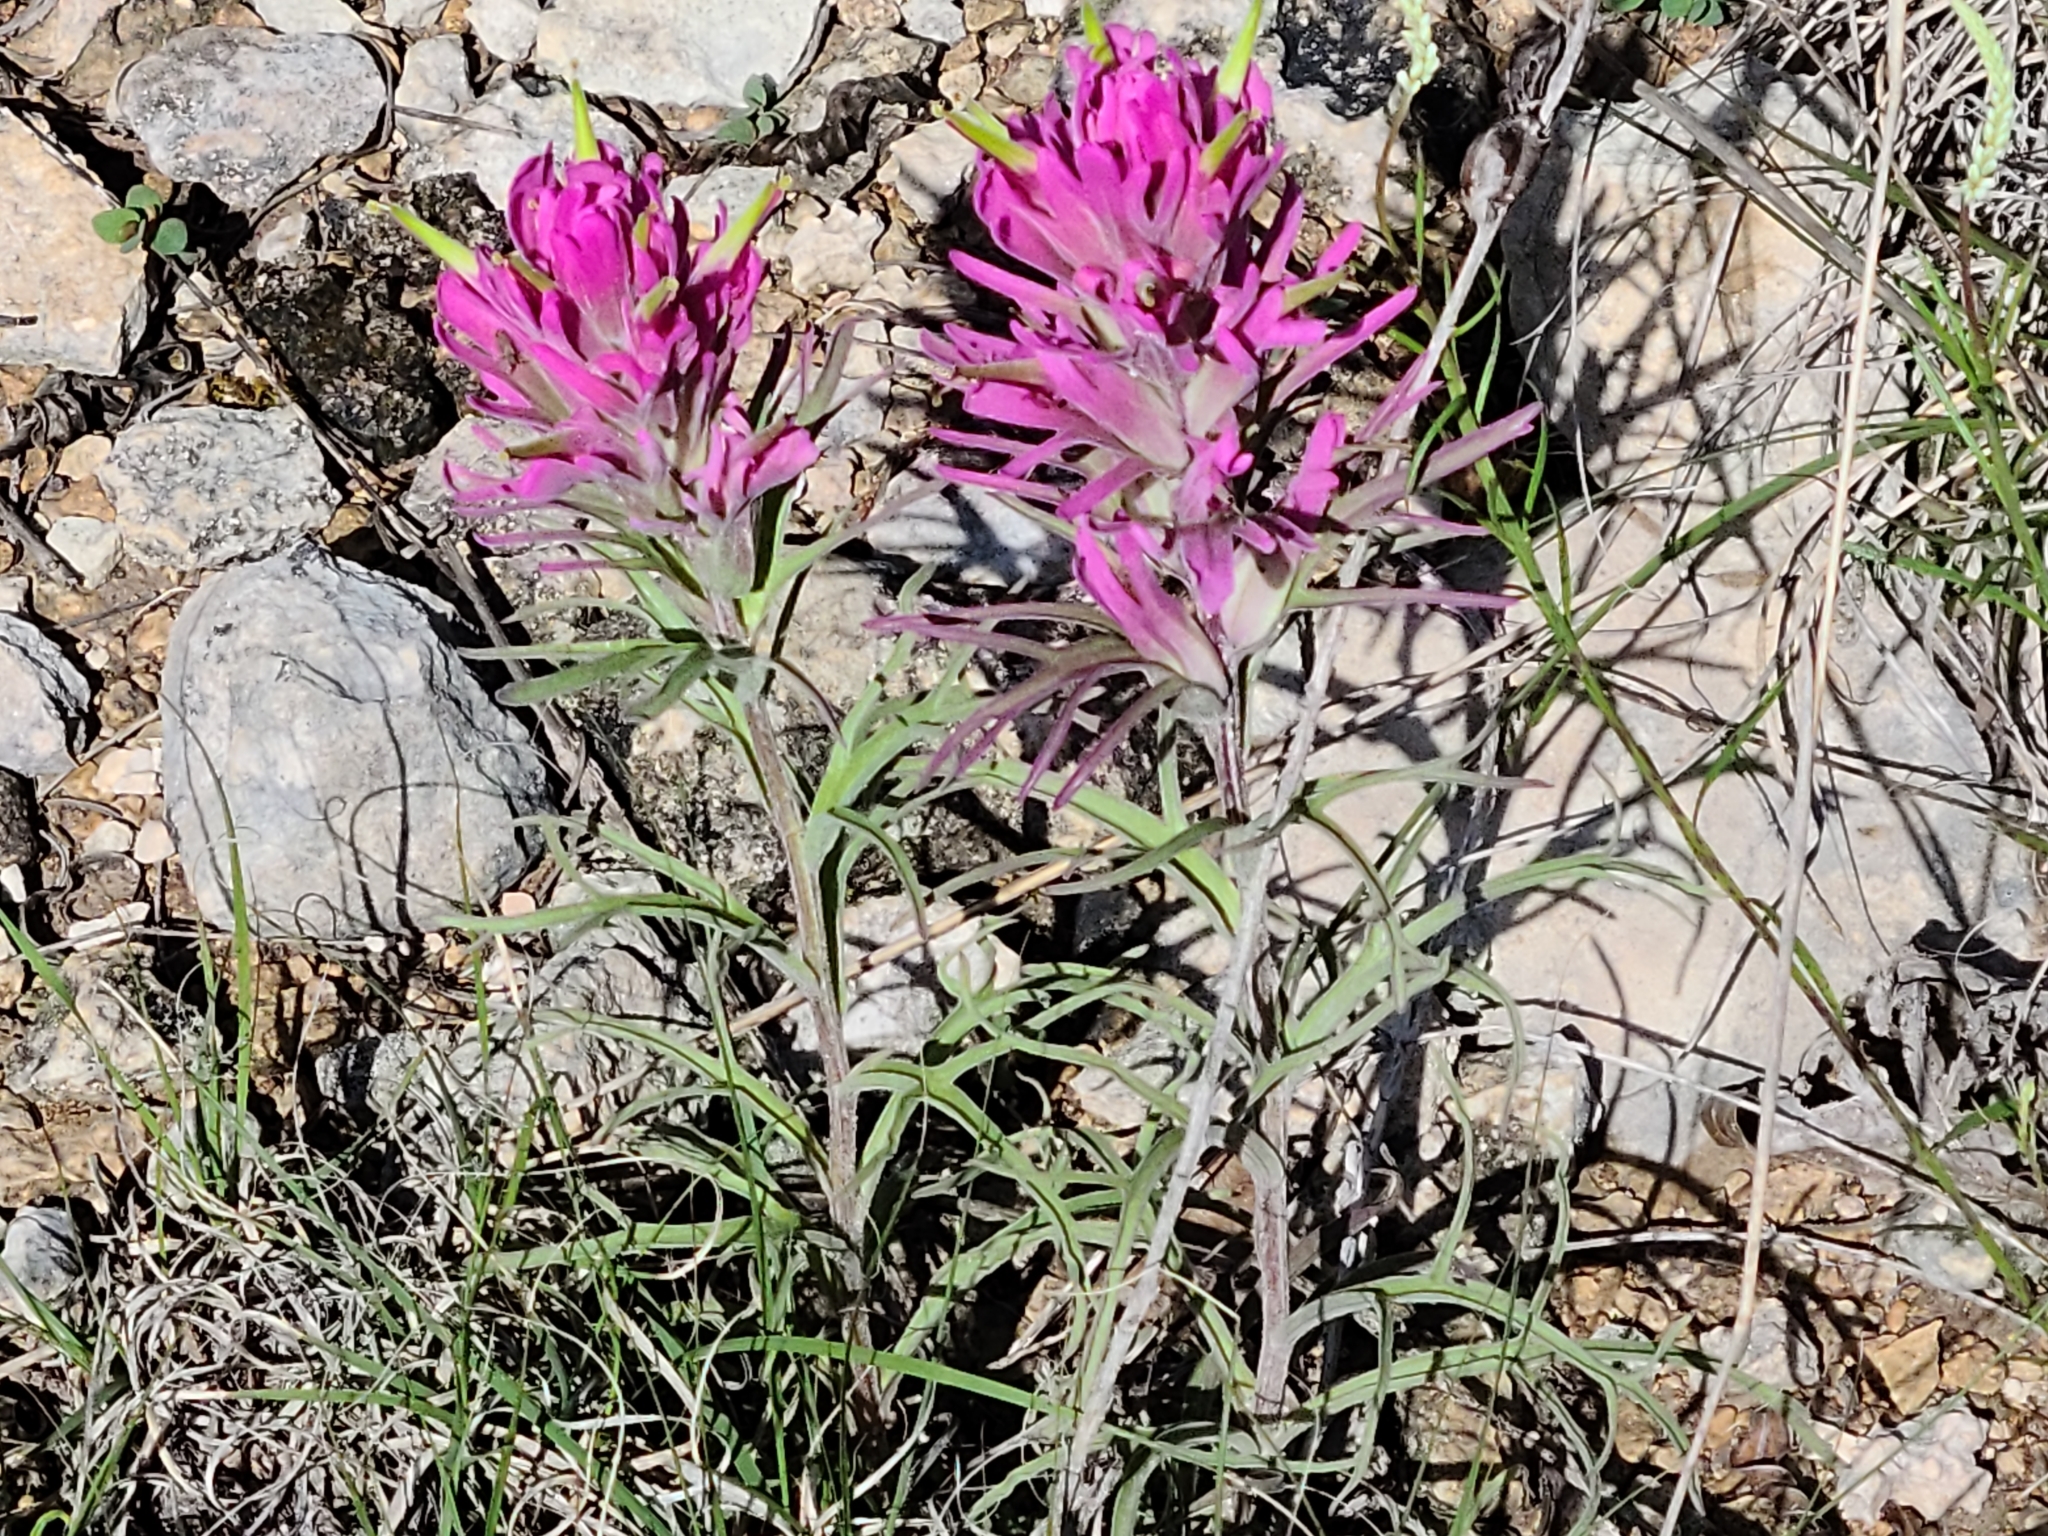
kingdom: Plantae
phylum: Tracheophyta
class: Magnoliopsida
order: Lamiales
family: Orobanchaceae
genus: Castilleja
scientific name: Castilleja purpurea
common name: Plains paintbrush
